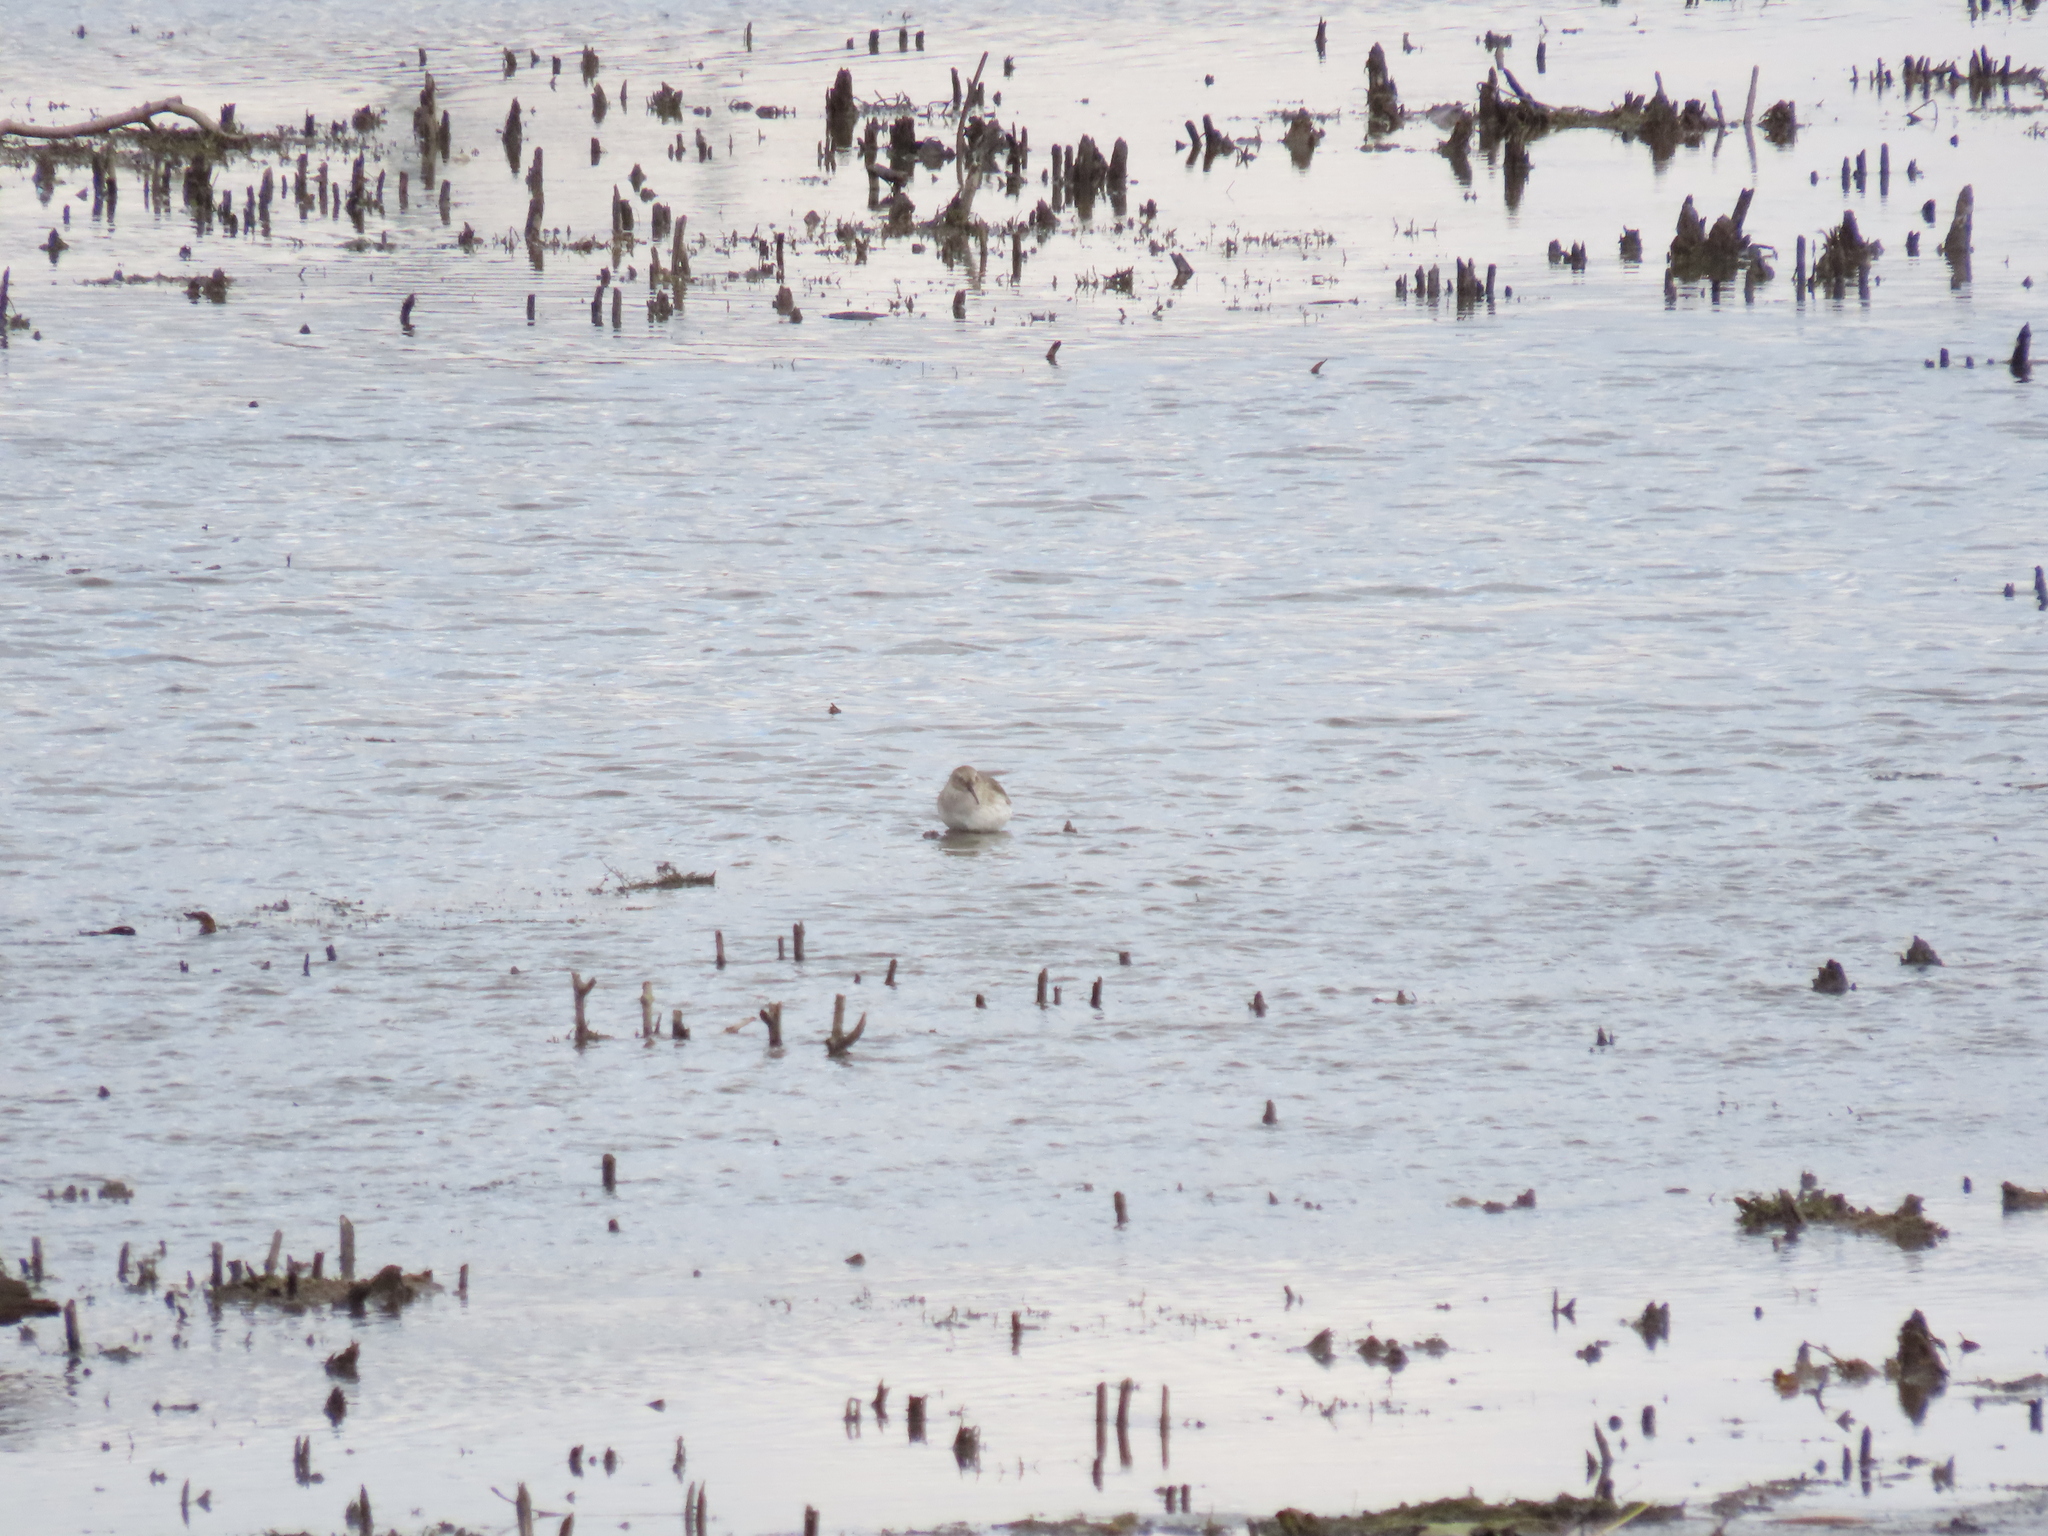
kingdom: Animalia
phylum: Chordata
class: Aves
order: Charadriiformes
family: Scolopacidae
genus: Calidris
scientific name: Calidris alpina
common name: Dunlin
